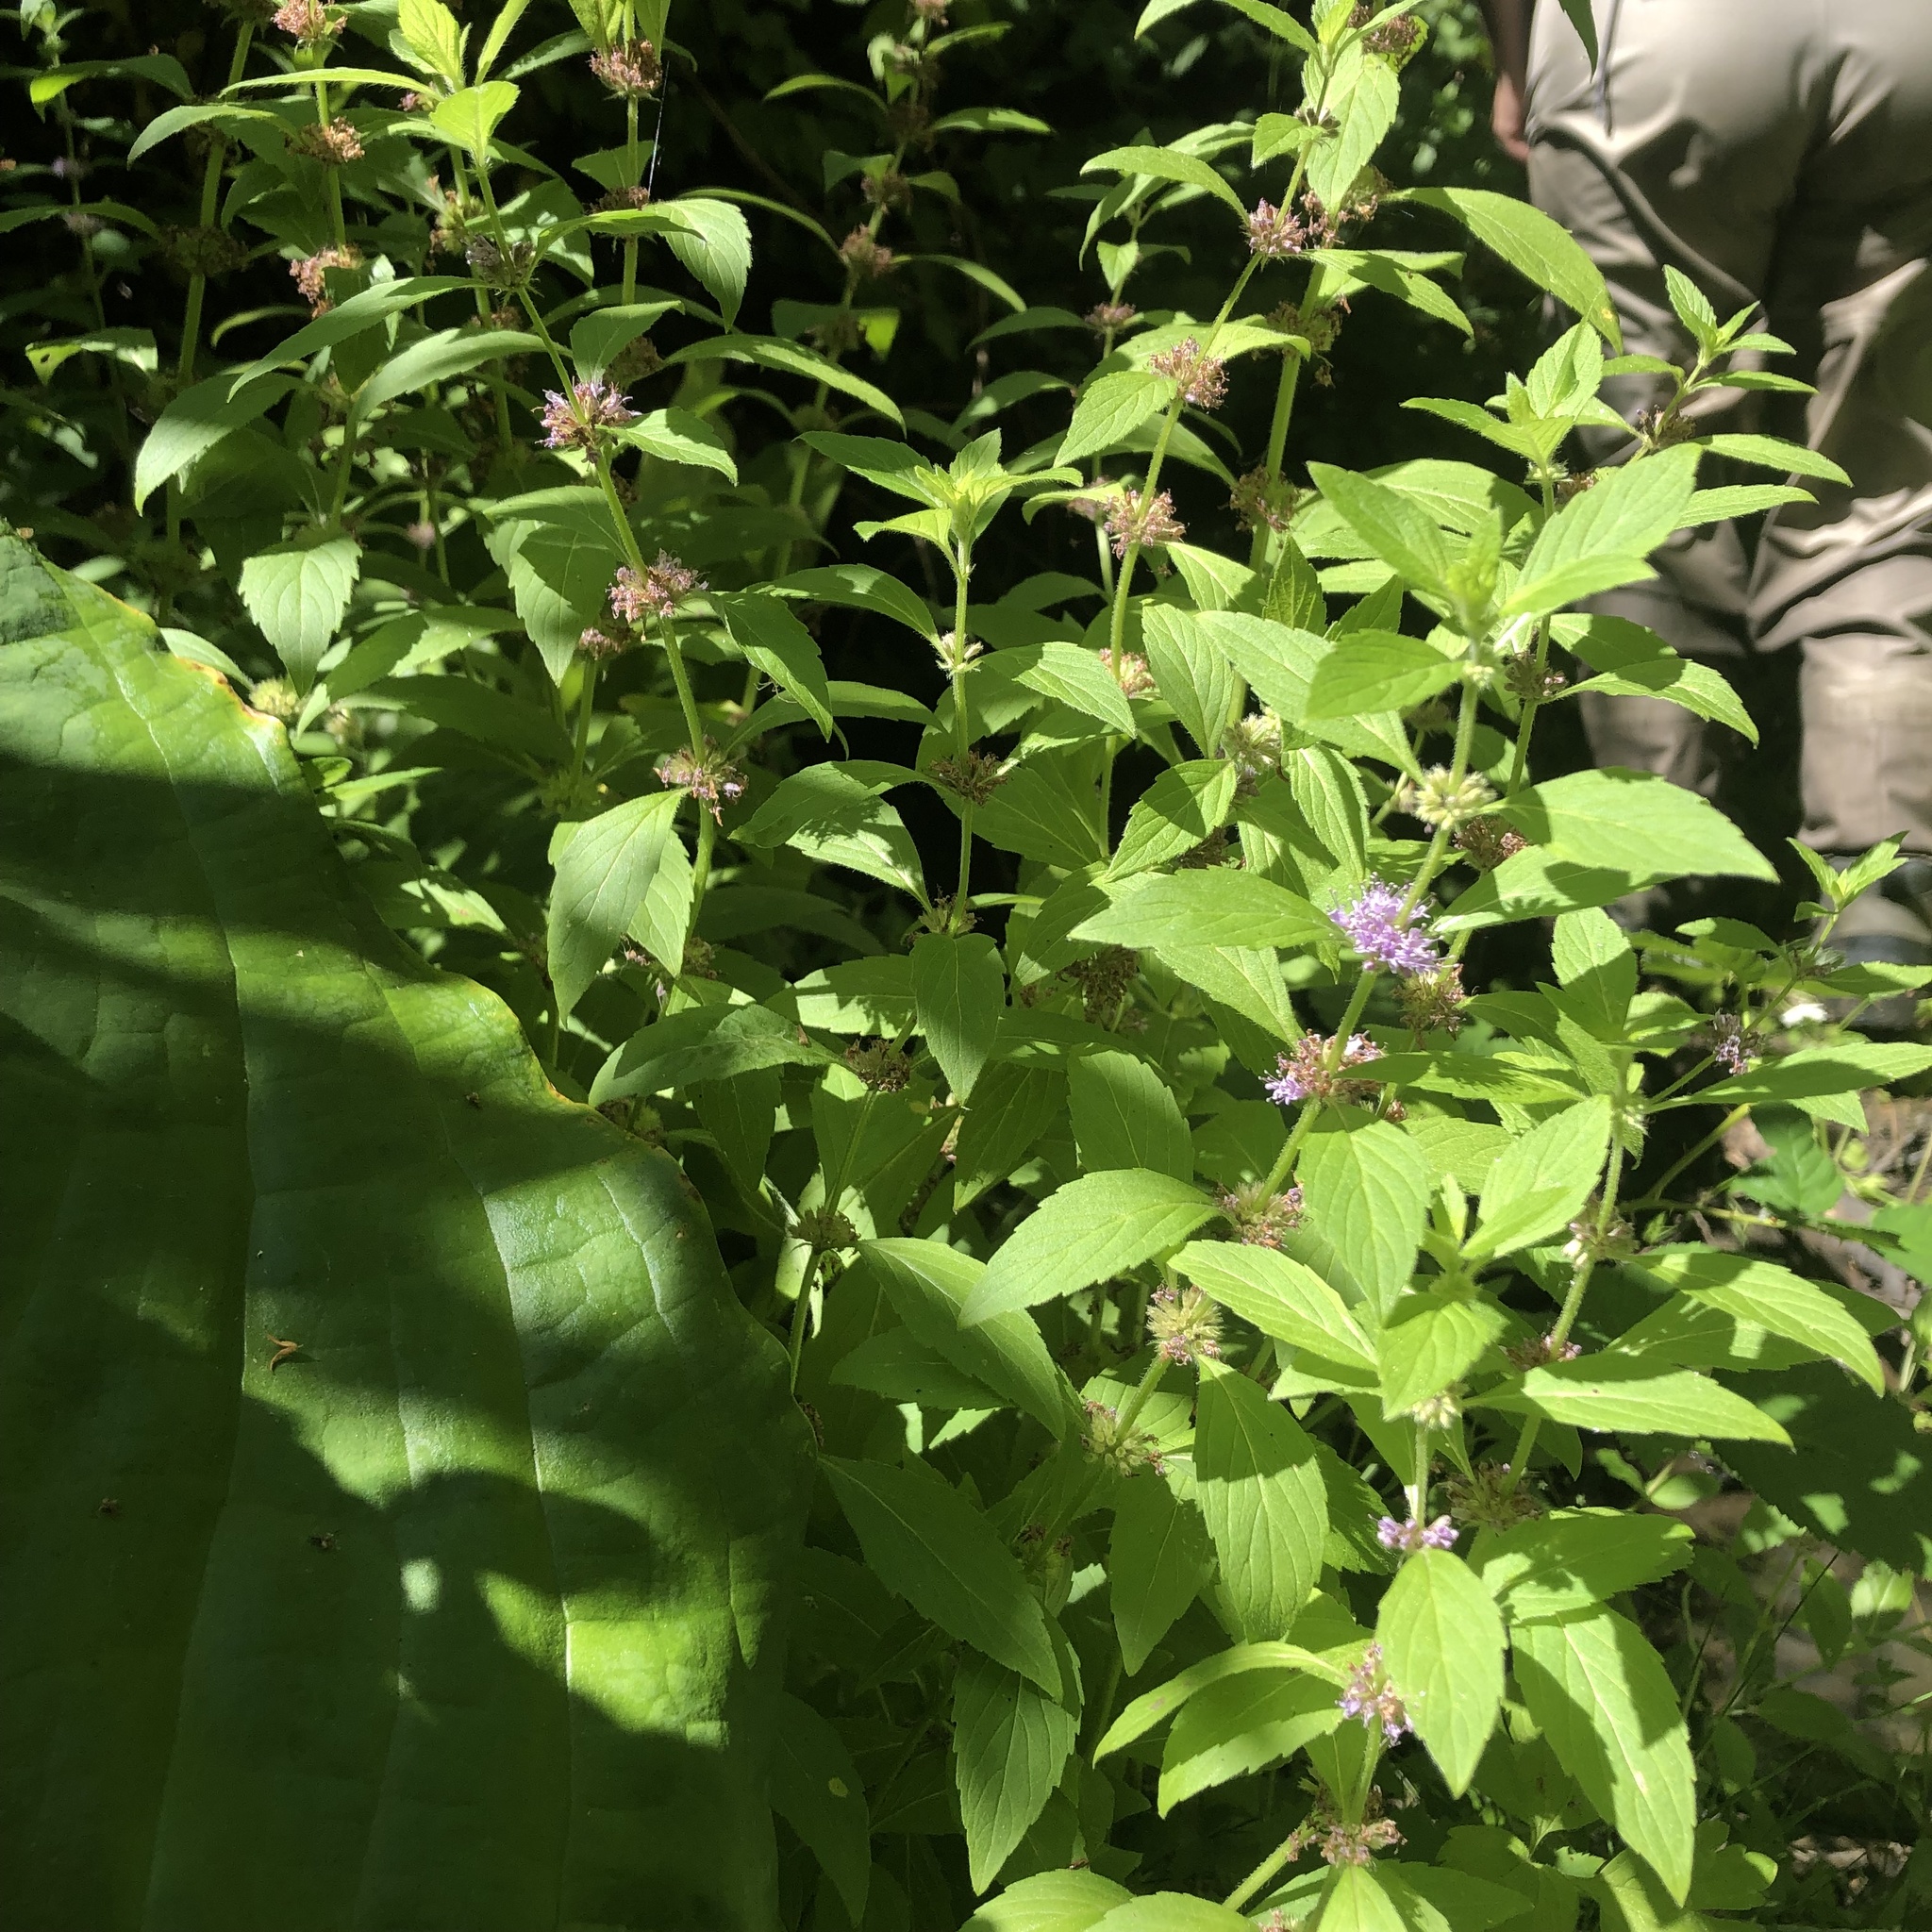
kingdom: Plantae
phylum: Tracheophyta
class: Magnoliopsida
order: Lamiales
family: Lamiaceae
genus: Mentha
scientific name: Mentha canadensis
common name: American corn mint
